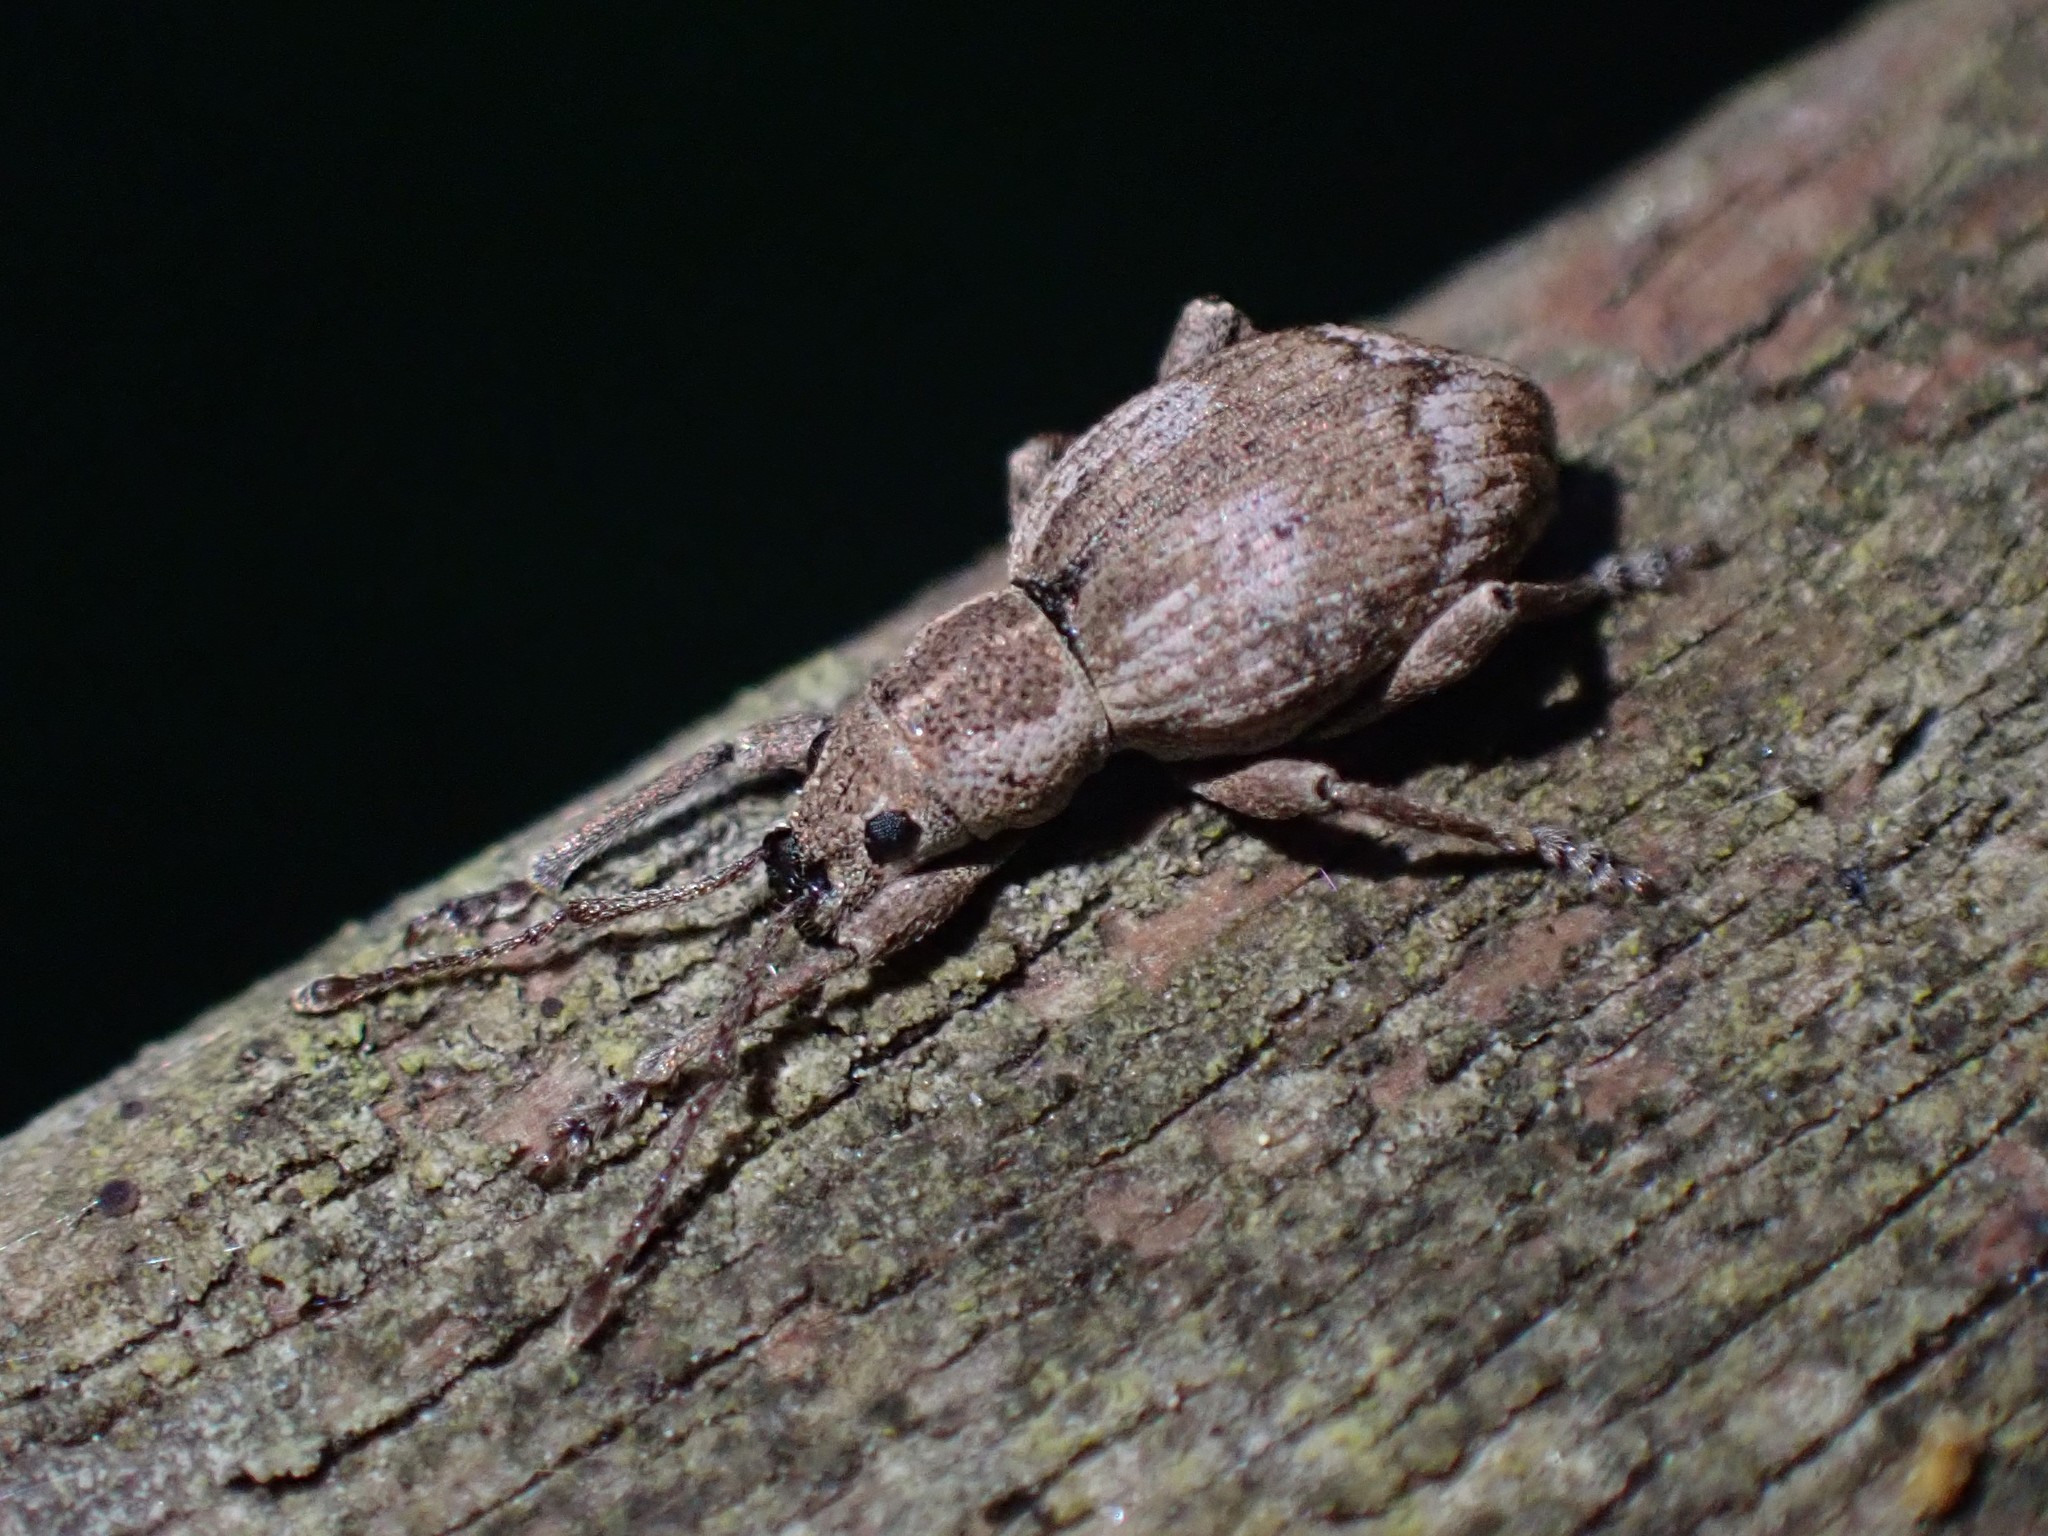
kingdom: Animalia
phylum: Arthropoda
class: Insecta
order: Coleoptera
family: Curculionidae
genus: Sciopithes
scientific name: Sciopithes obscurus
